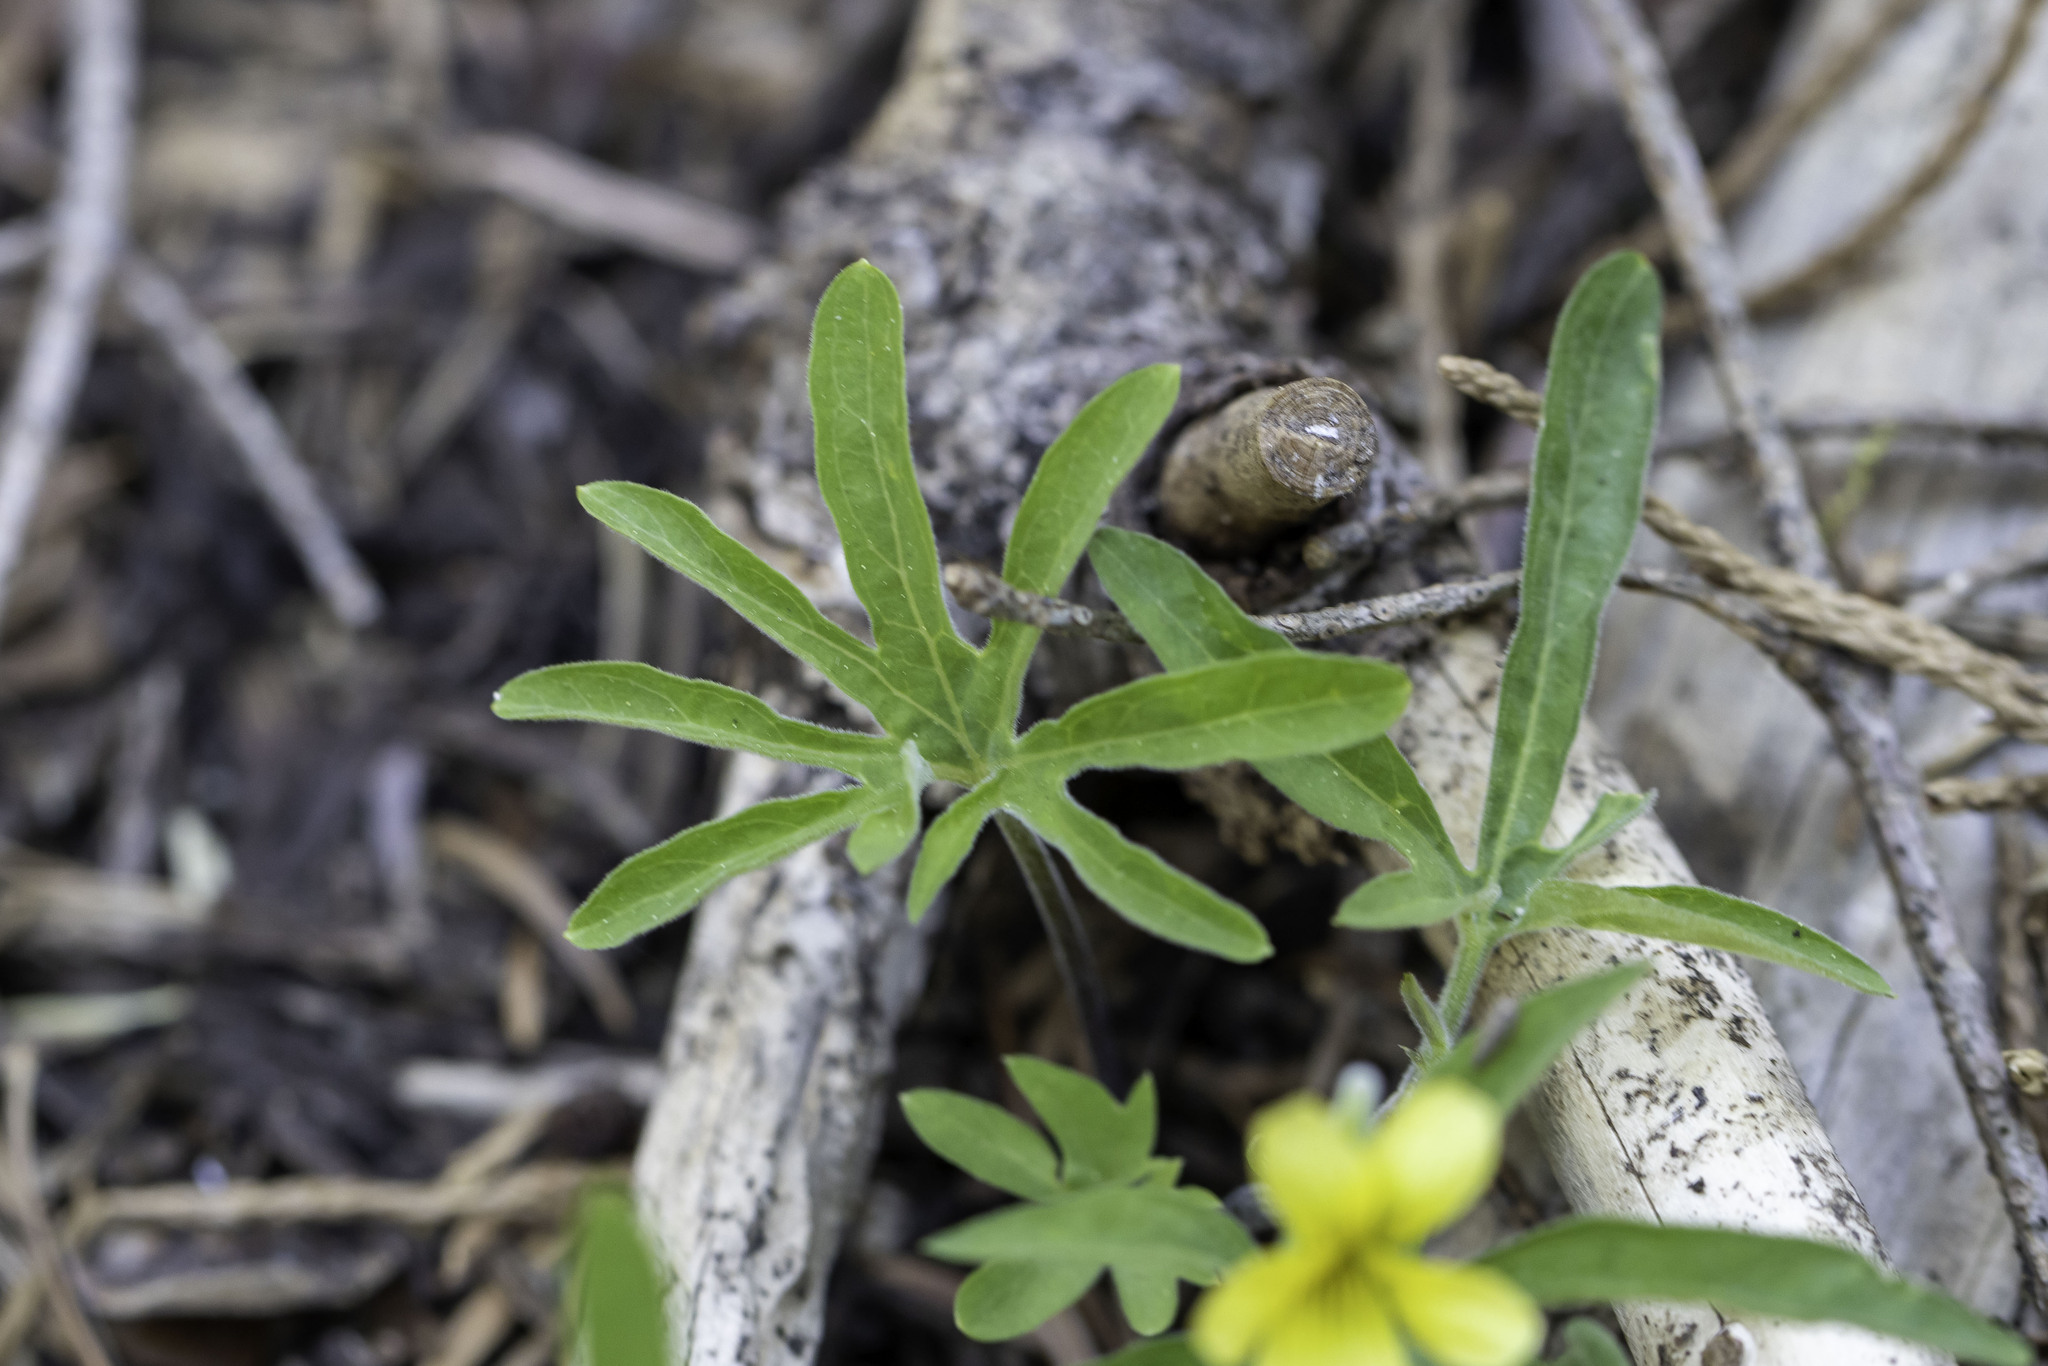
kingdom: Plantae
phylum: Tracheophyta
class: Magnoliopsida
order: Malpighiales
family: Violaceae
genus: Viola
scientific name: Viola lobata
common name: Pine violet
